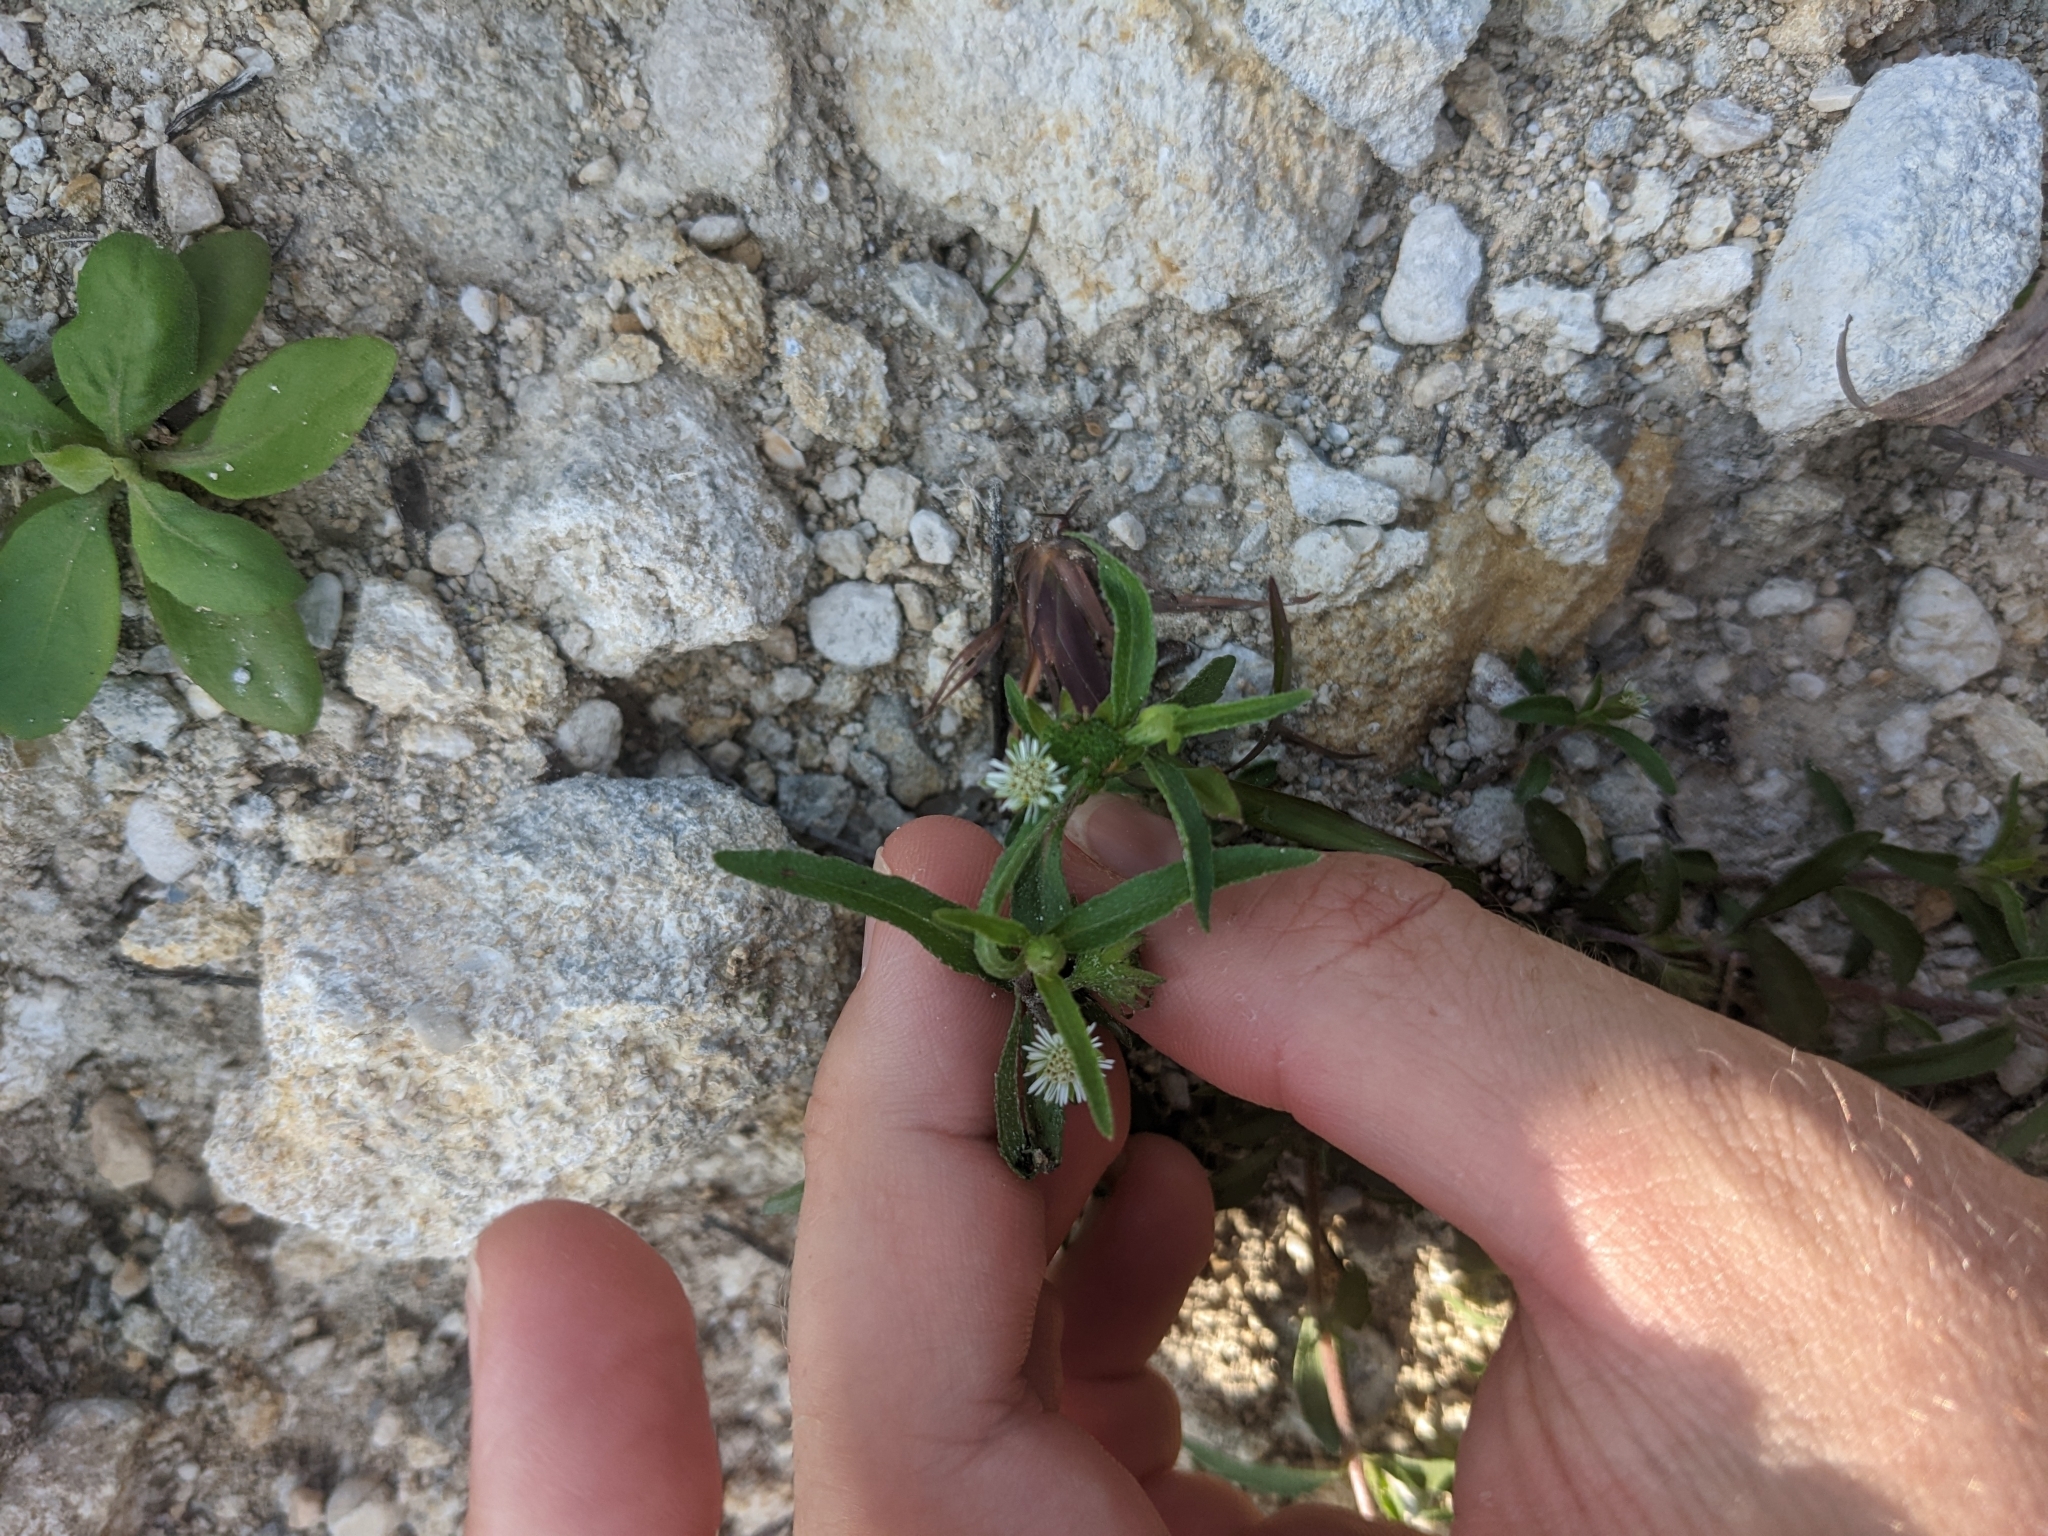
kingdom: Plantae
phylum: Tracheophyta
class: Magnoliopsida
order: Asterales
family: Asteraceae
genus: Eclipta
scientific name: Eclipta prostrata
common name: False daisy
